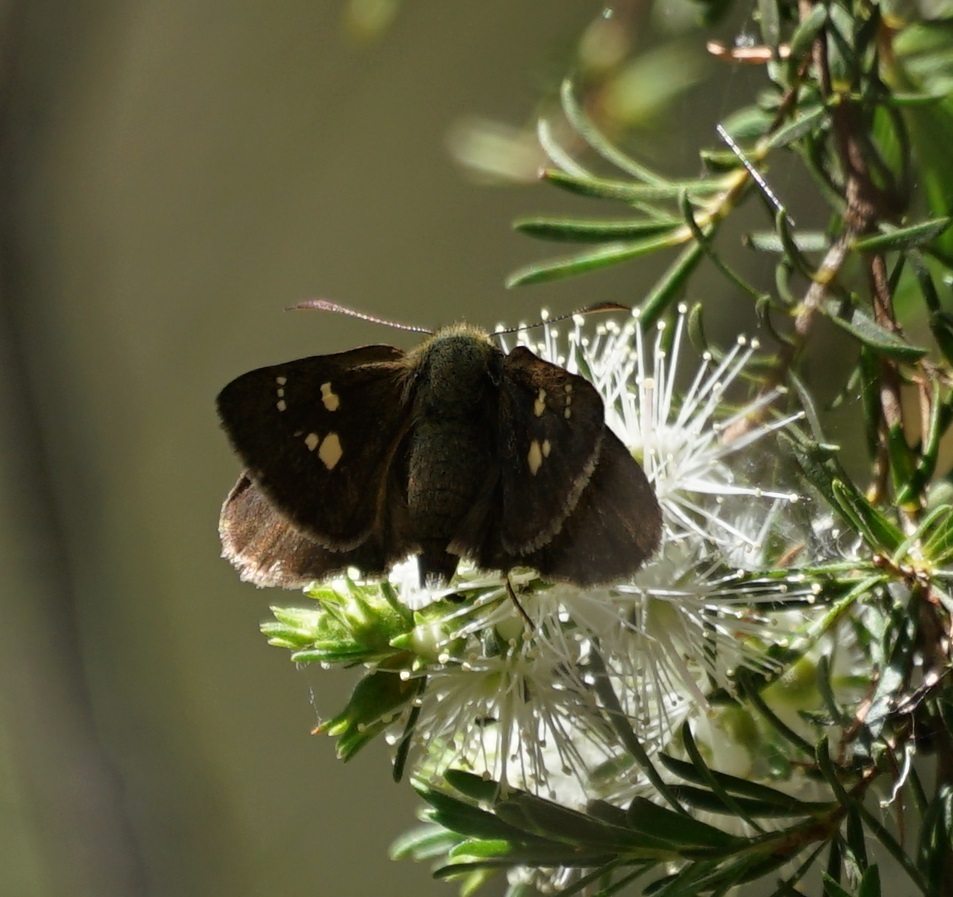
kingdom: Animalia
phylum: Arthropoda
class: Insecta
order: Lepidoptera
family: Hesperiidae
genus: Toxidia
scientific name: Toxidia
